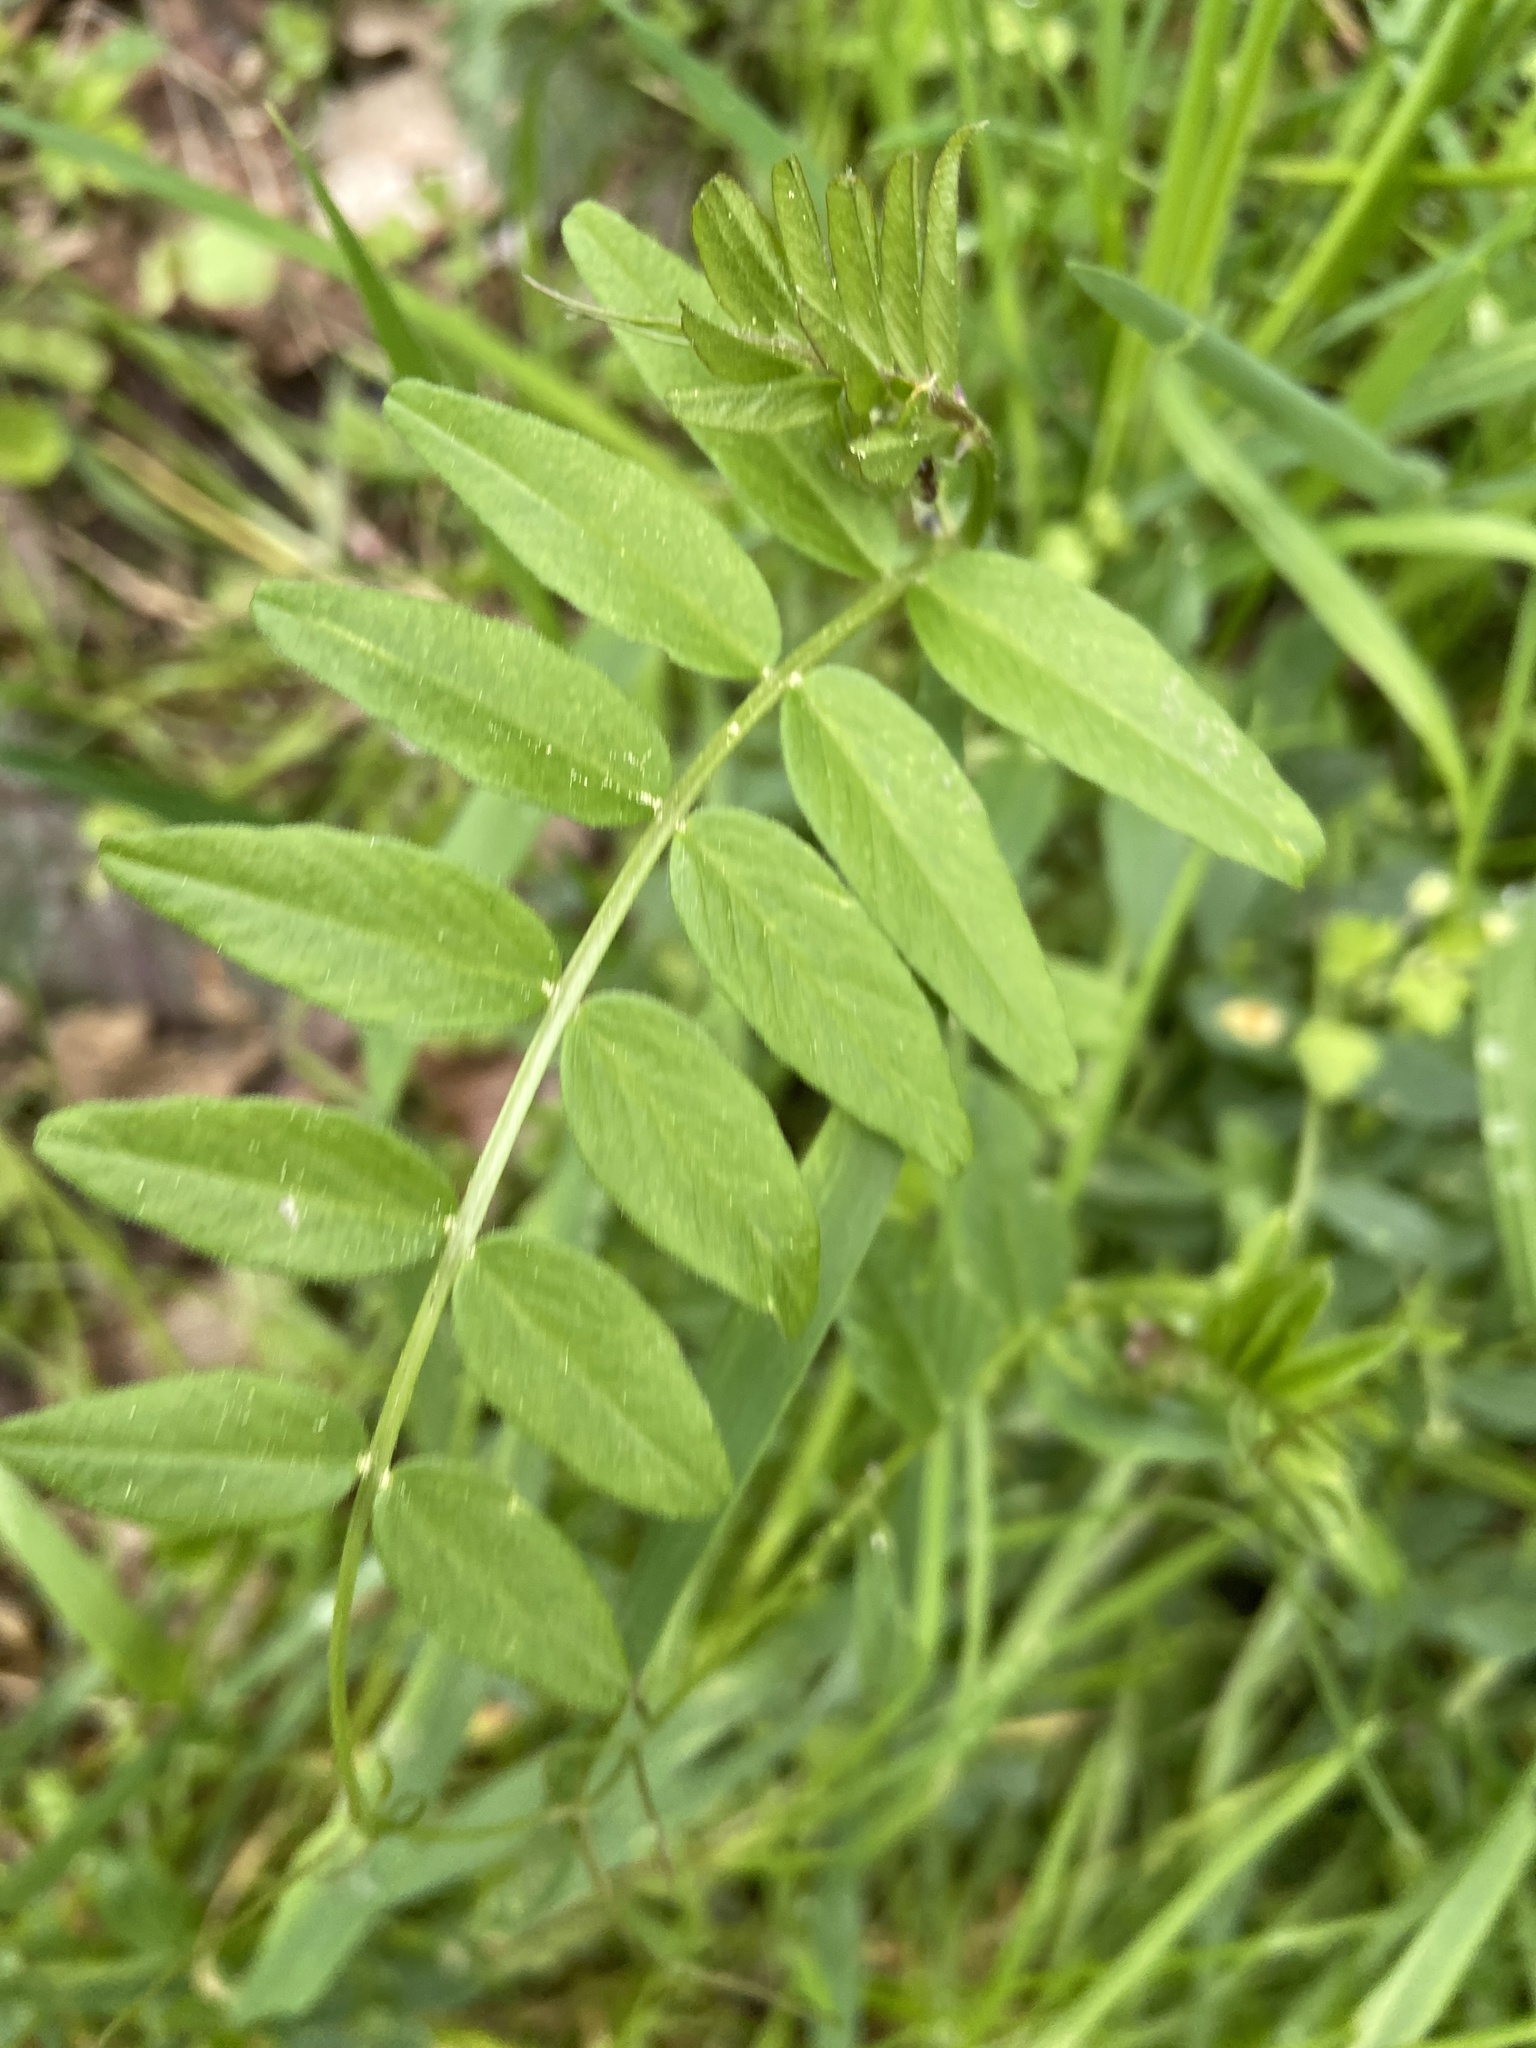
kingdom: Plantae
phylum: Tracheophyta
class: Magnoliopsida
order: Fabales
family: Fabaceae
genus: Vicia
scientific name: Vicia sepium
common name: Bush vetch
